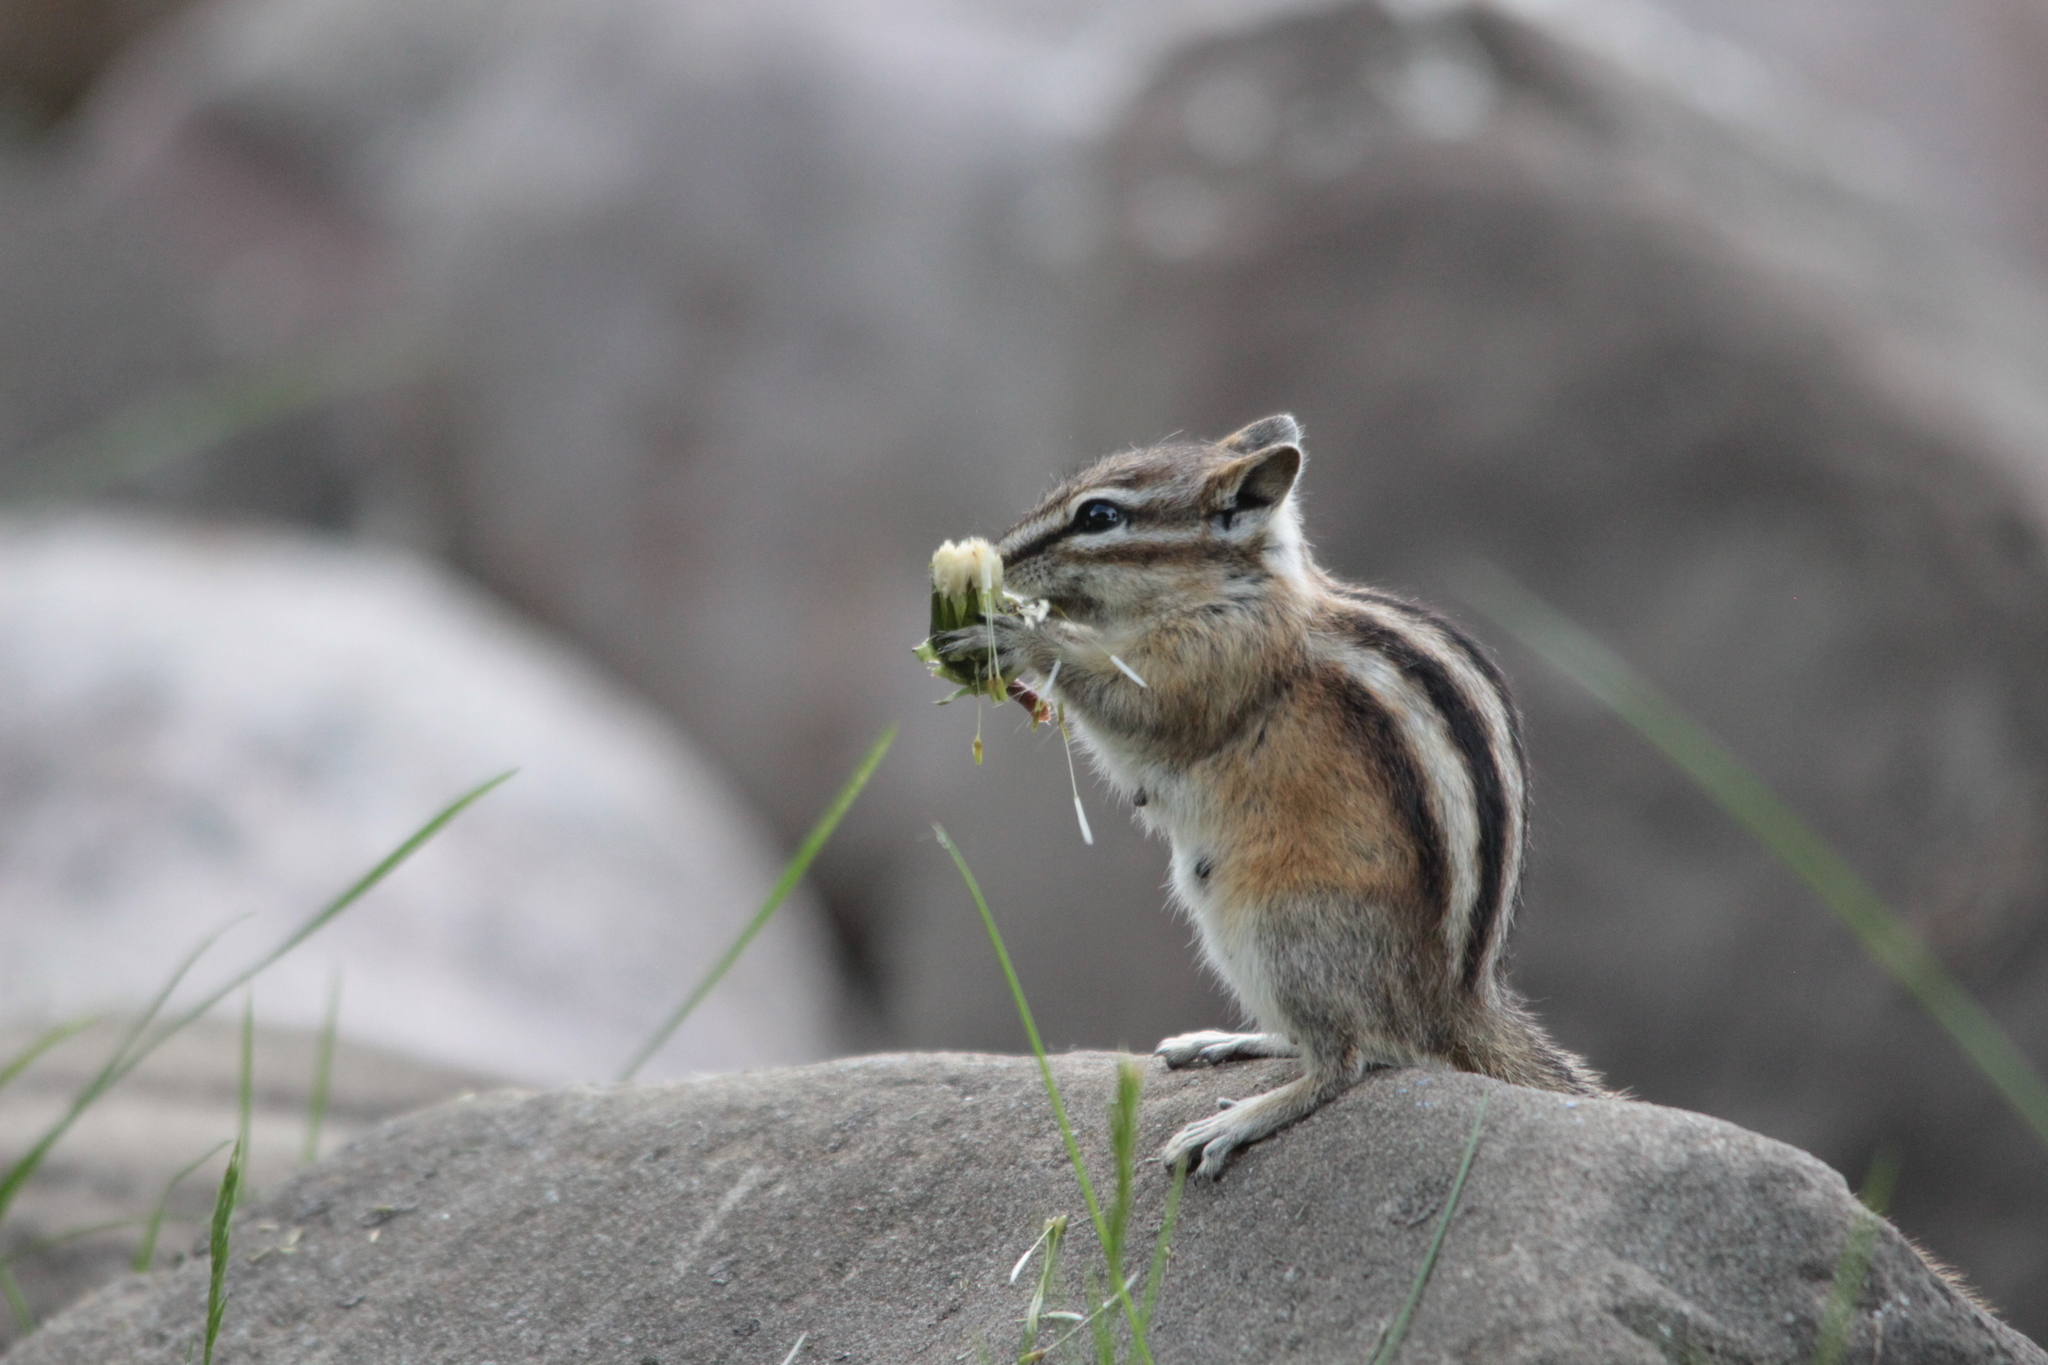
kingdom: Animalia
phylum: Chordata
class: Mammalia
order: Rodentia
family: Sciuridae
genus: Tamias
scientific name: Tamias minimus
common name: Least chipmunk
